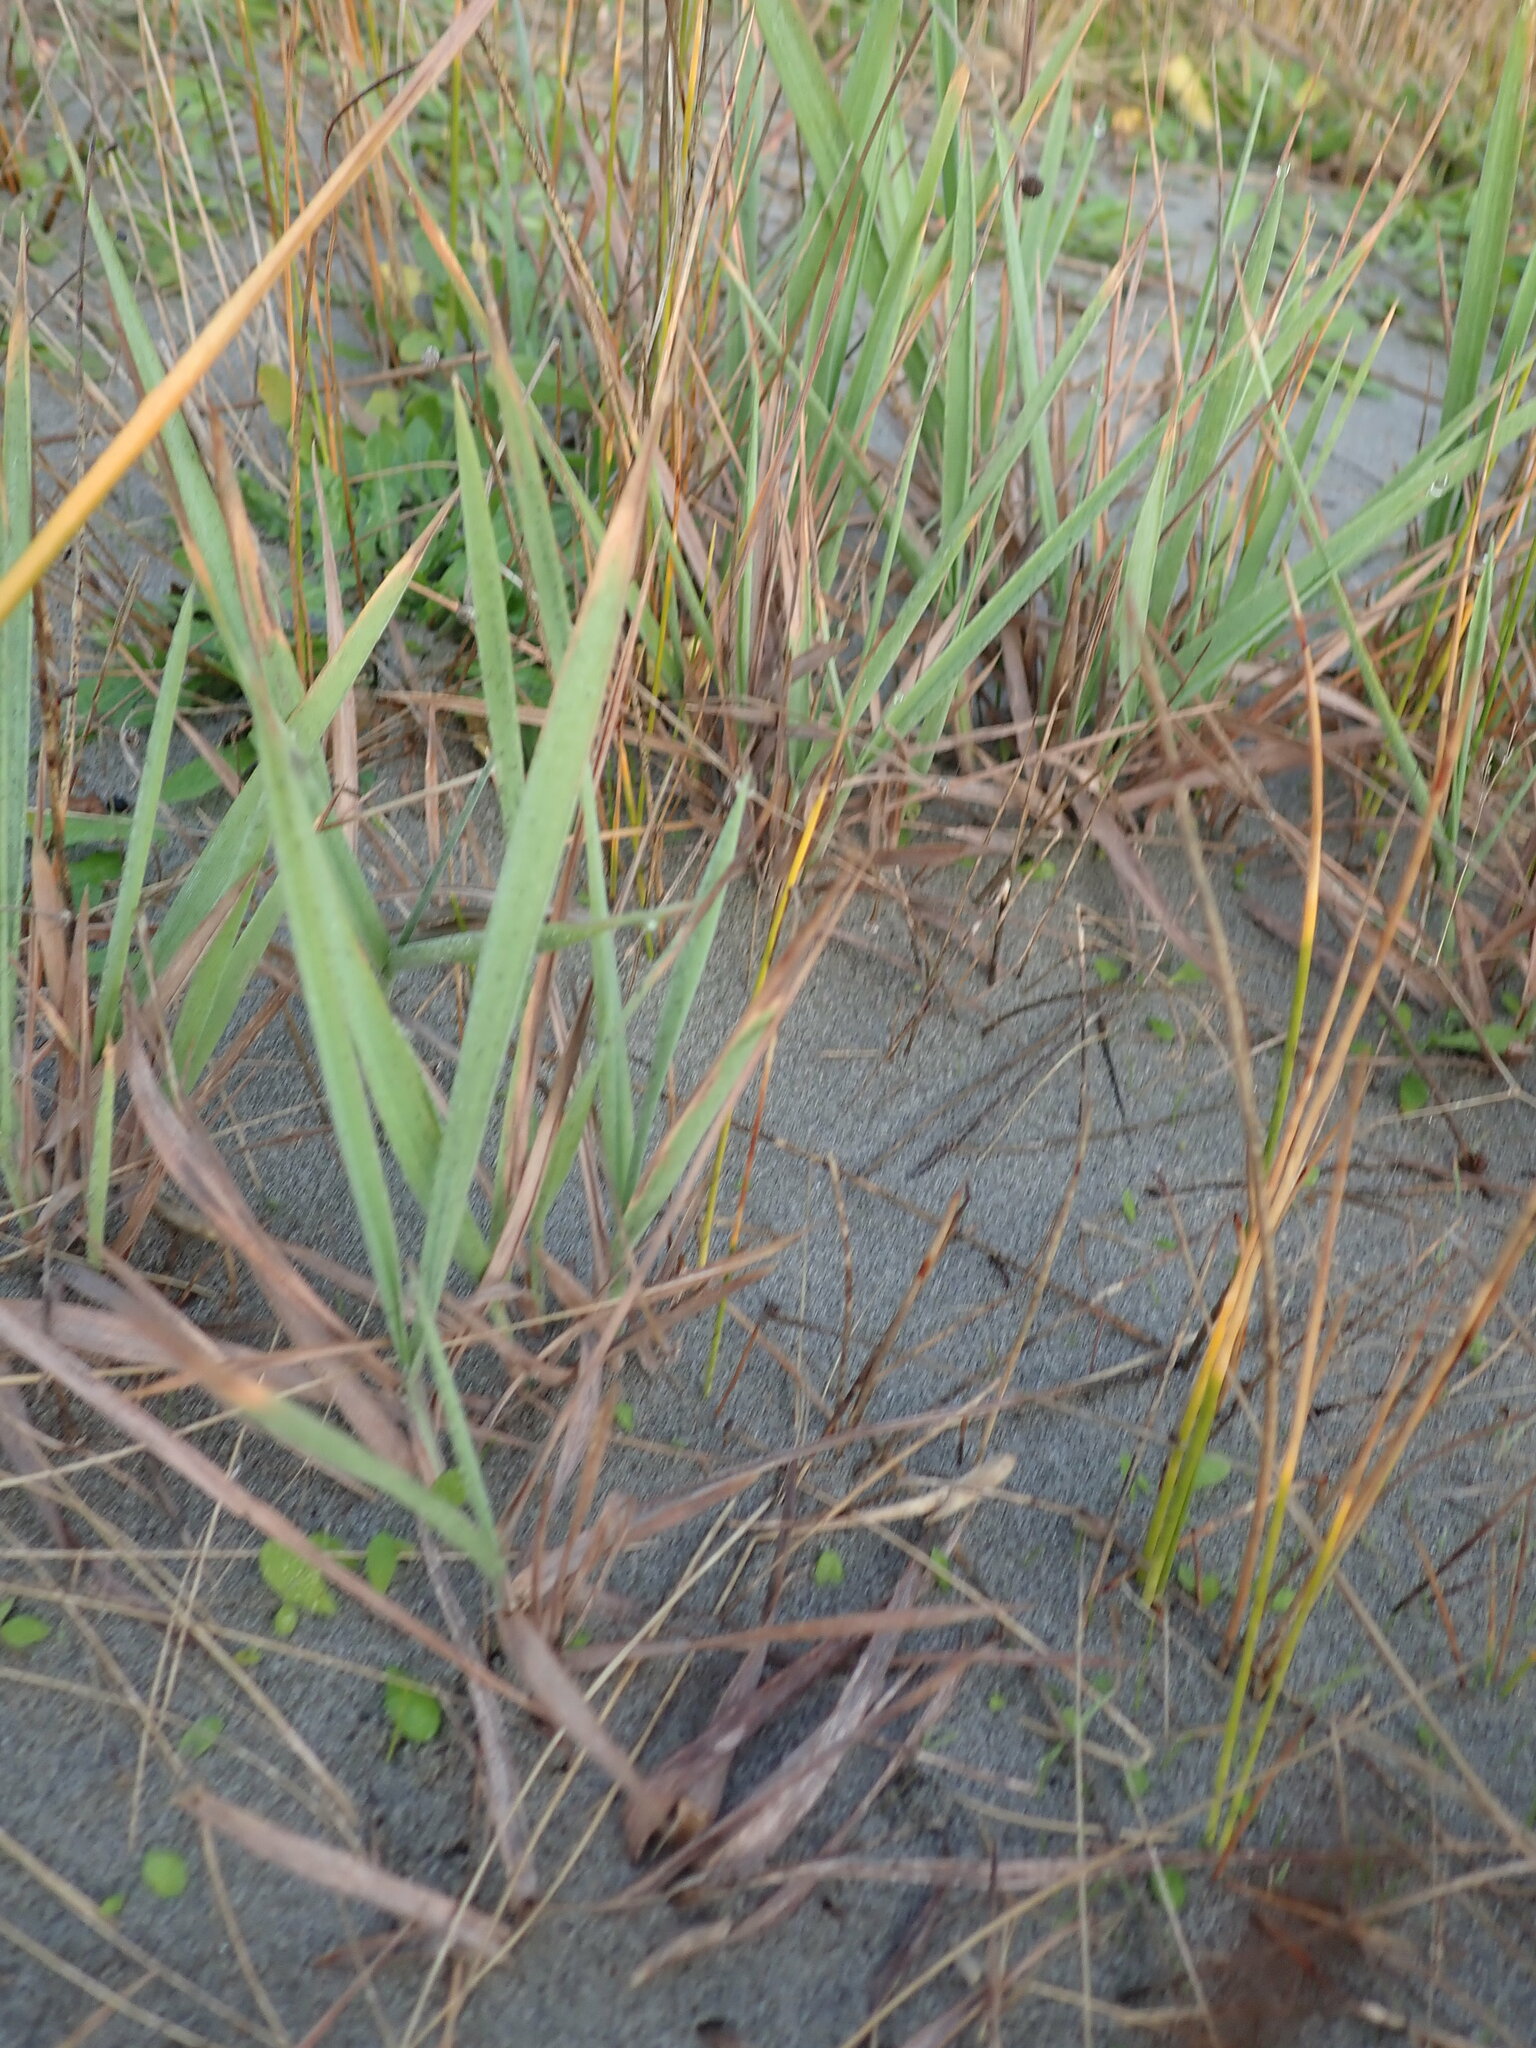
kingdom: Plantae
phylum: Tracheophyta
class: Liliopsida
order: Poales
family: Poaceae
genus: Lachnagrostis
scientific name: Lachnagrostis billardierei
